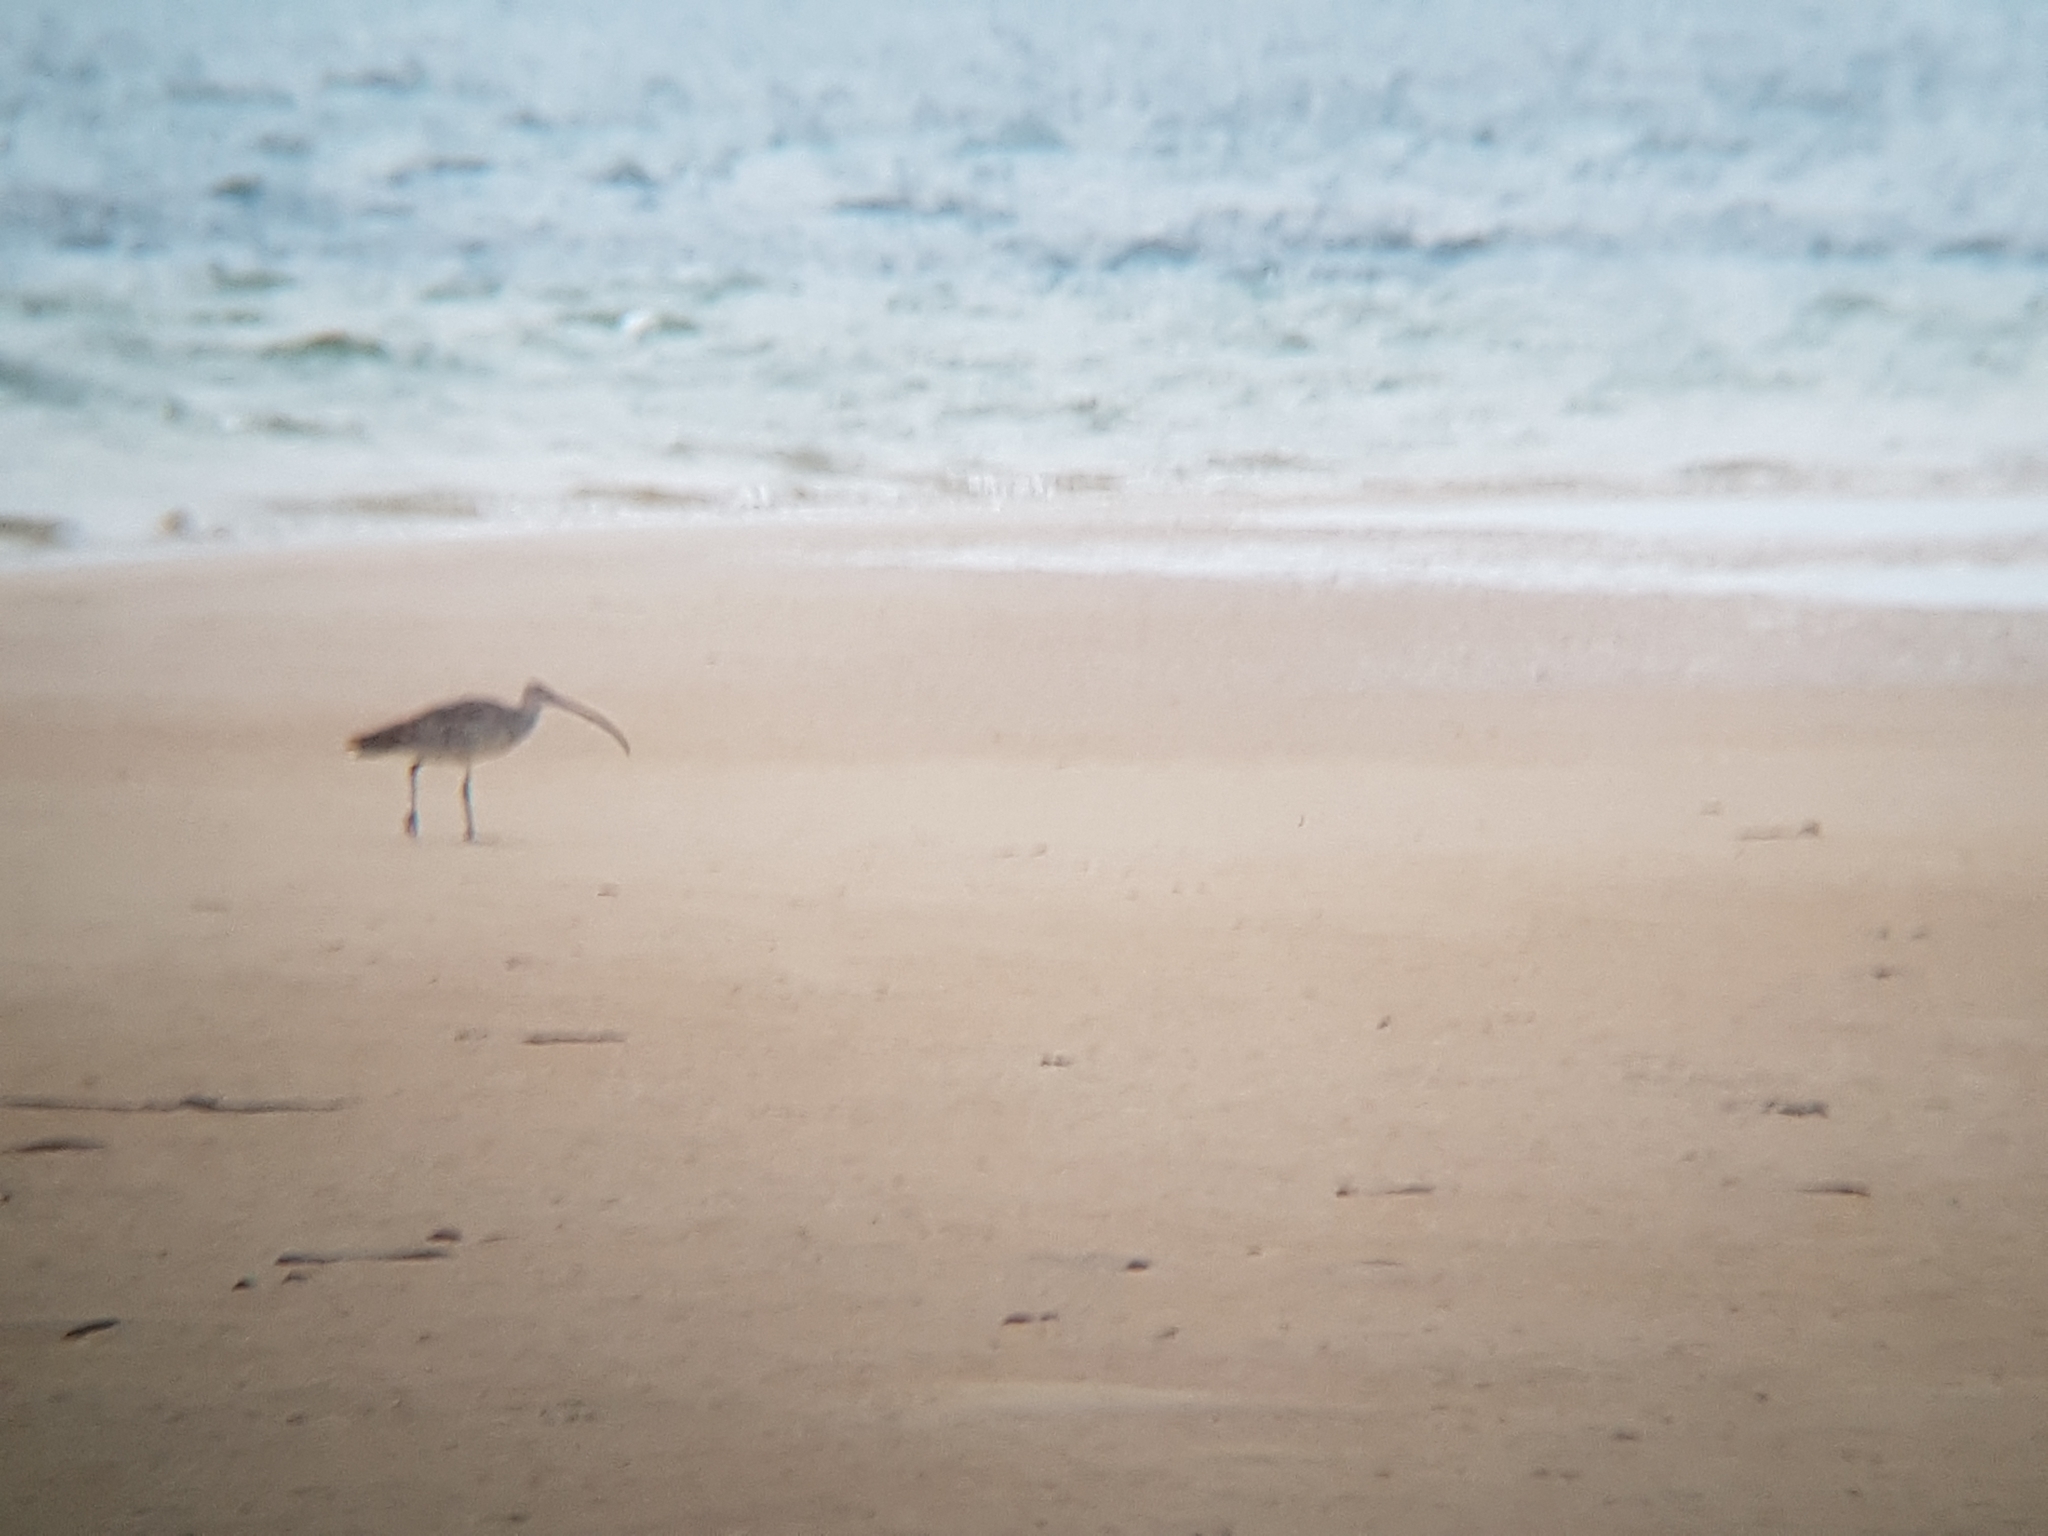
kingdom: Animalia
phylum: Chordata
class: Aves
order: Charadriiformes
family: Scolopacidae
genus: Numenius
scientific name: Numenius madagascariensis
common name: Far eastern curlew
